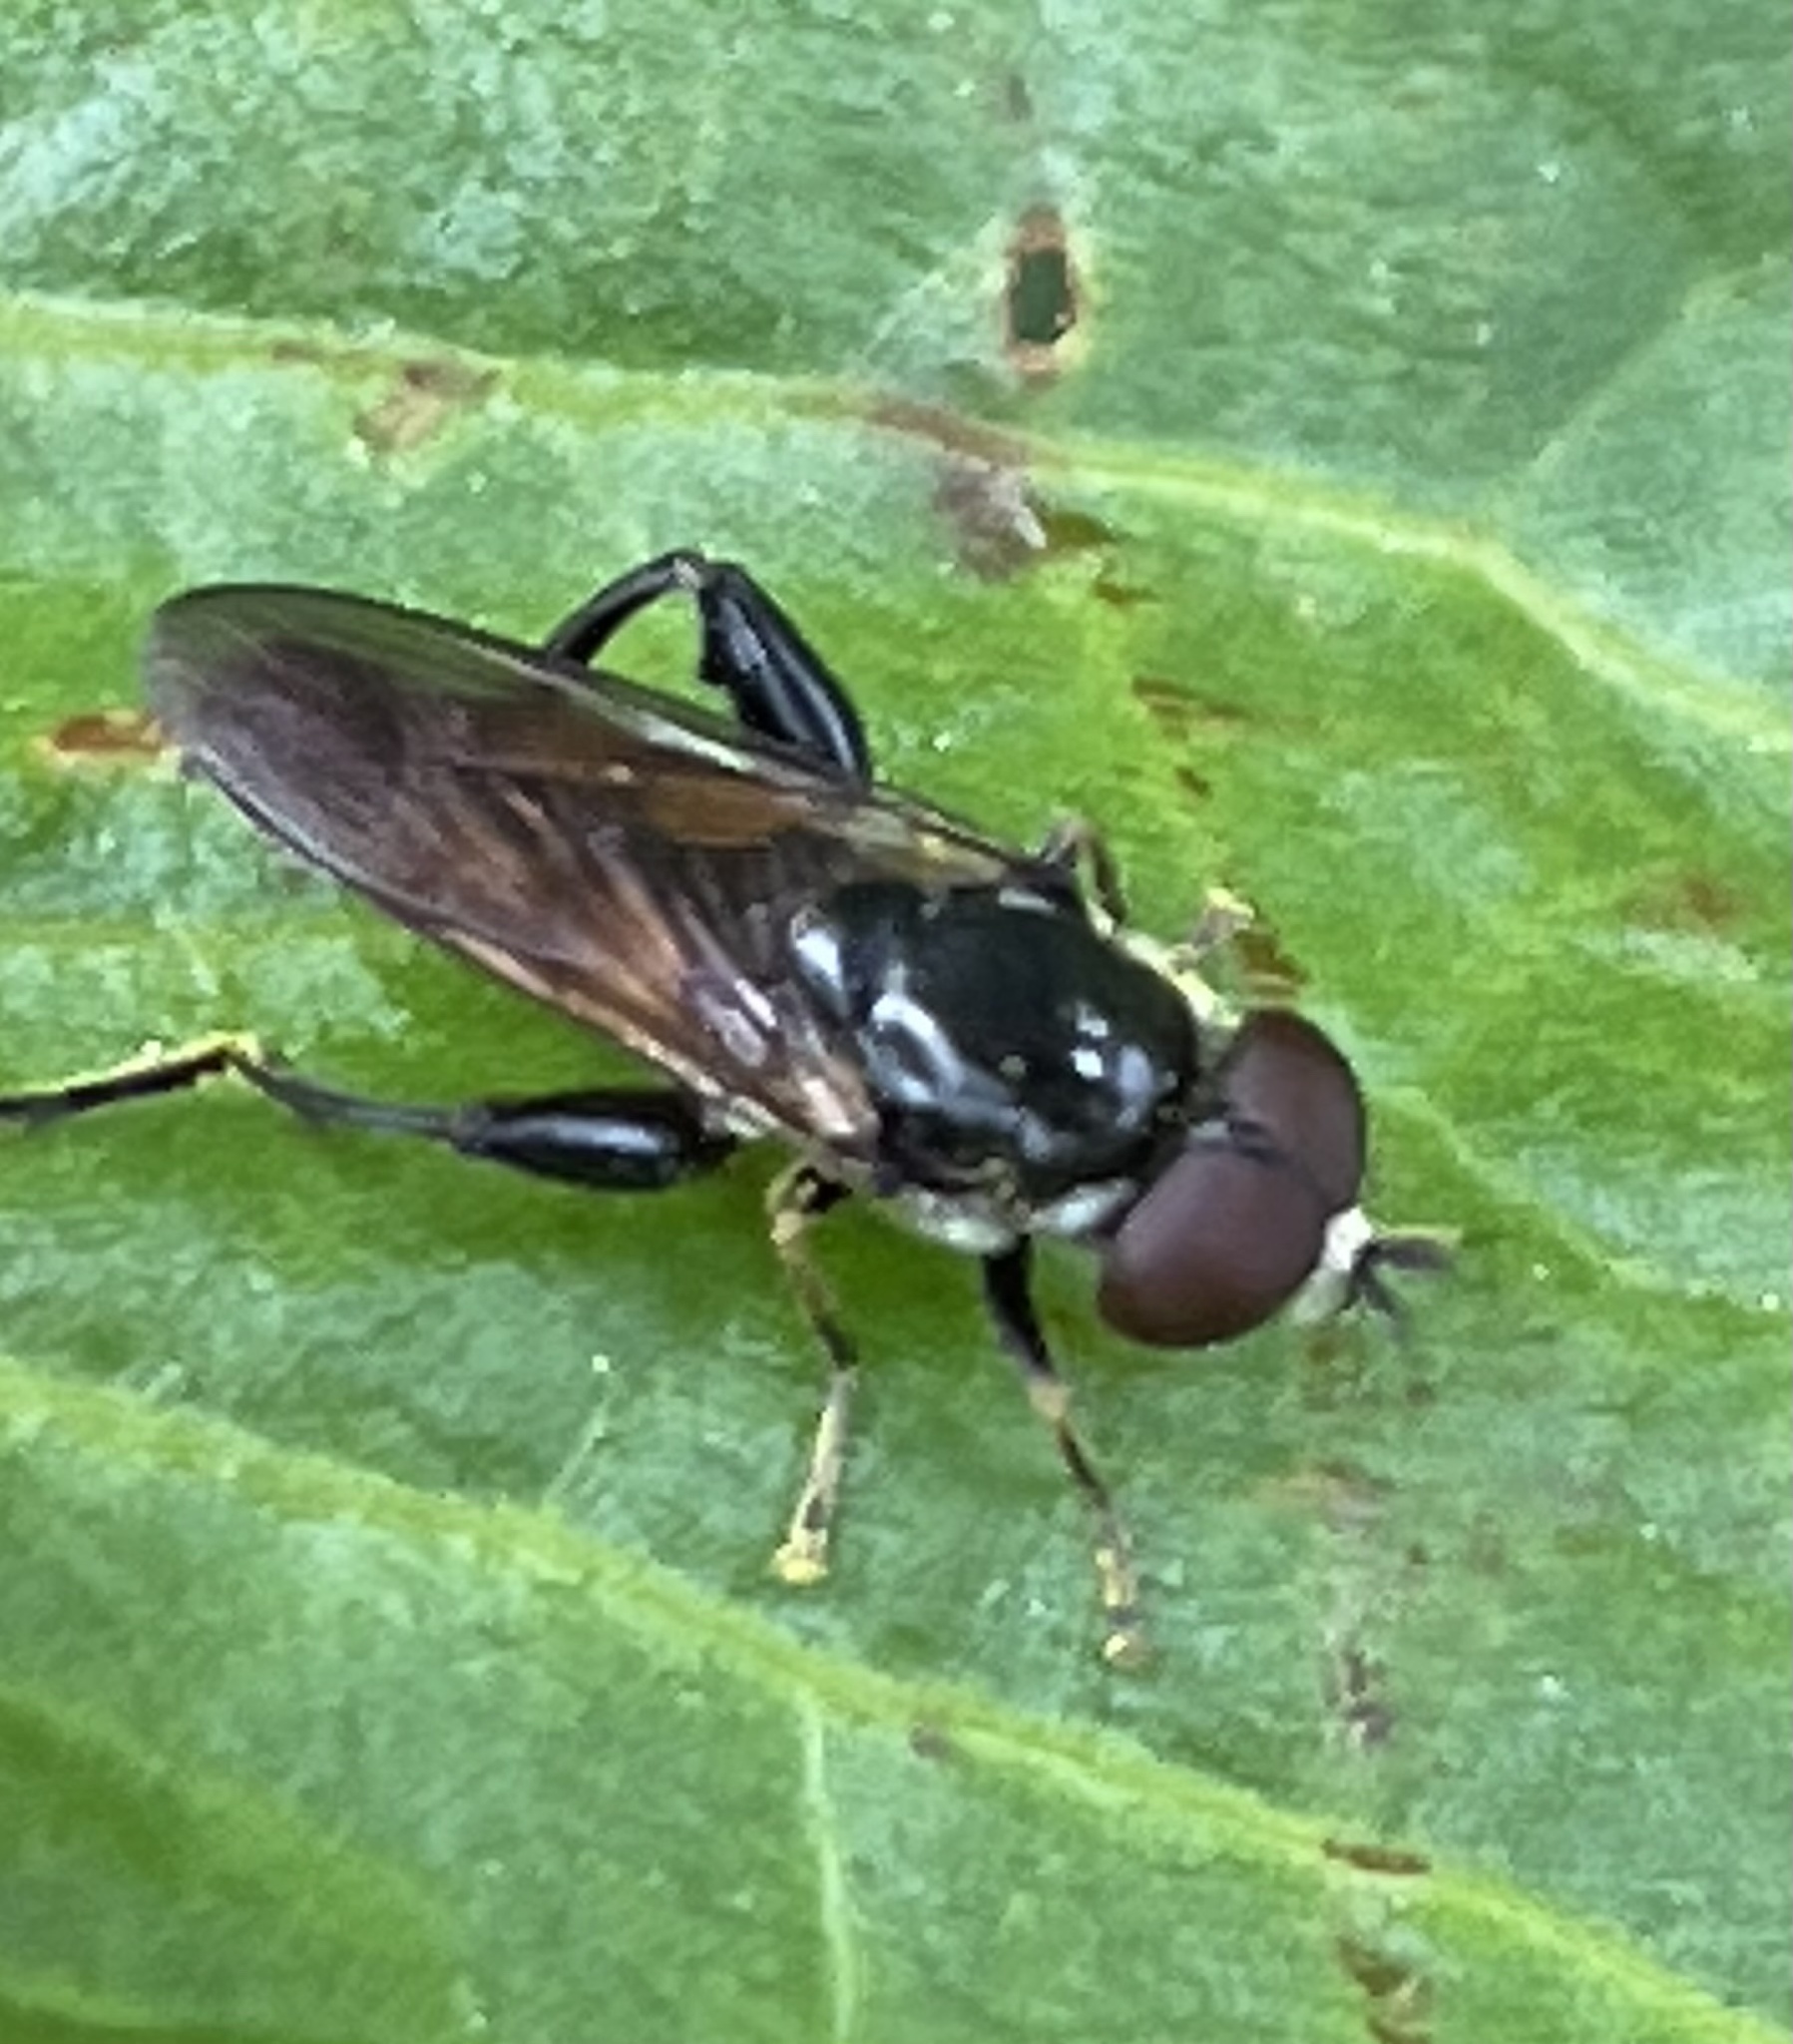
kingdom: Animalia
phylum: Arthropoda
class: Insecta
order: Diptera
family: Syrphidae
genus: Tropidia
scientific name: Tropidia scita
